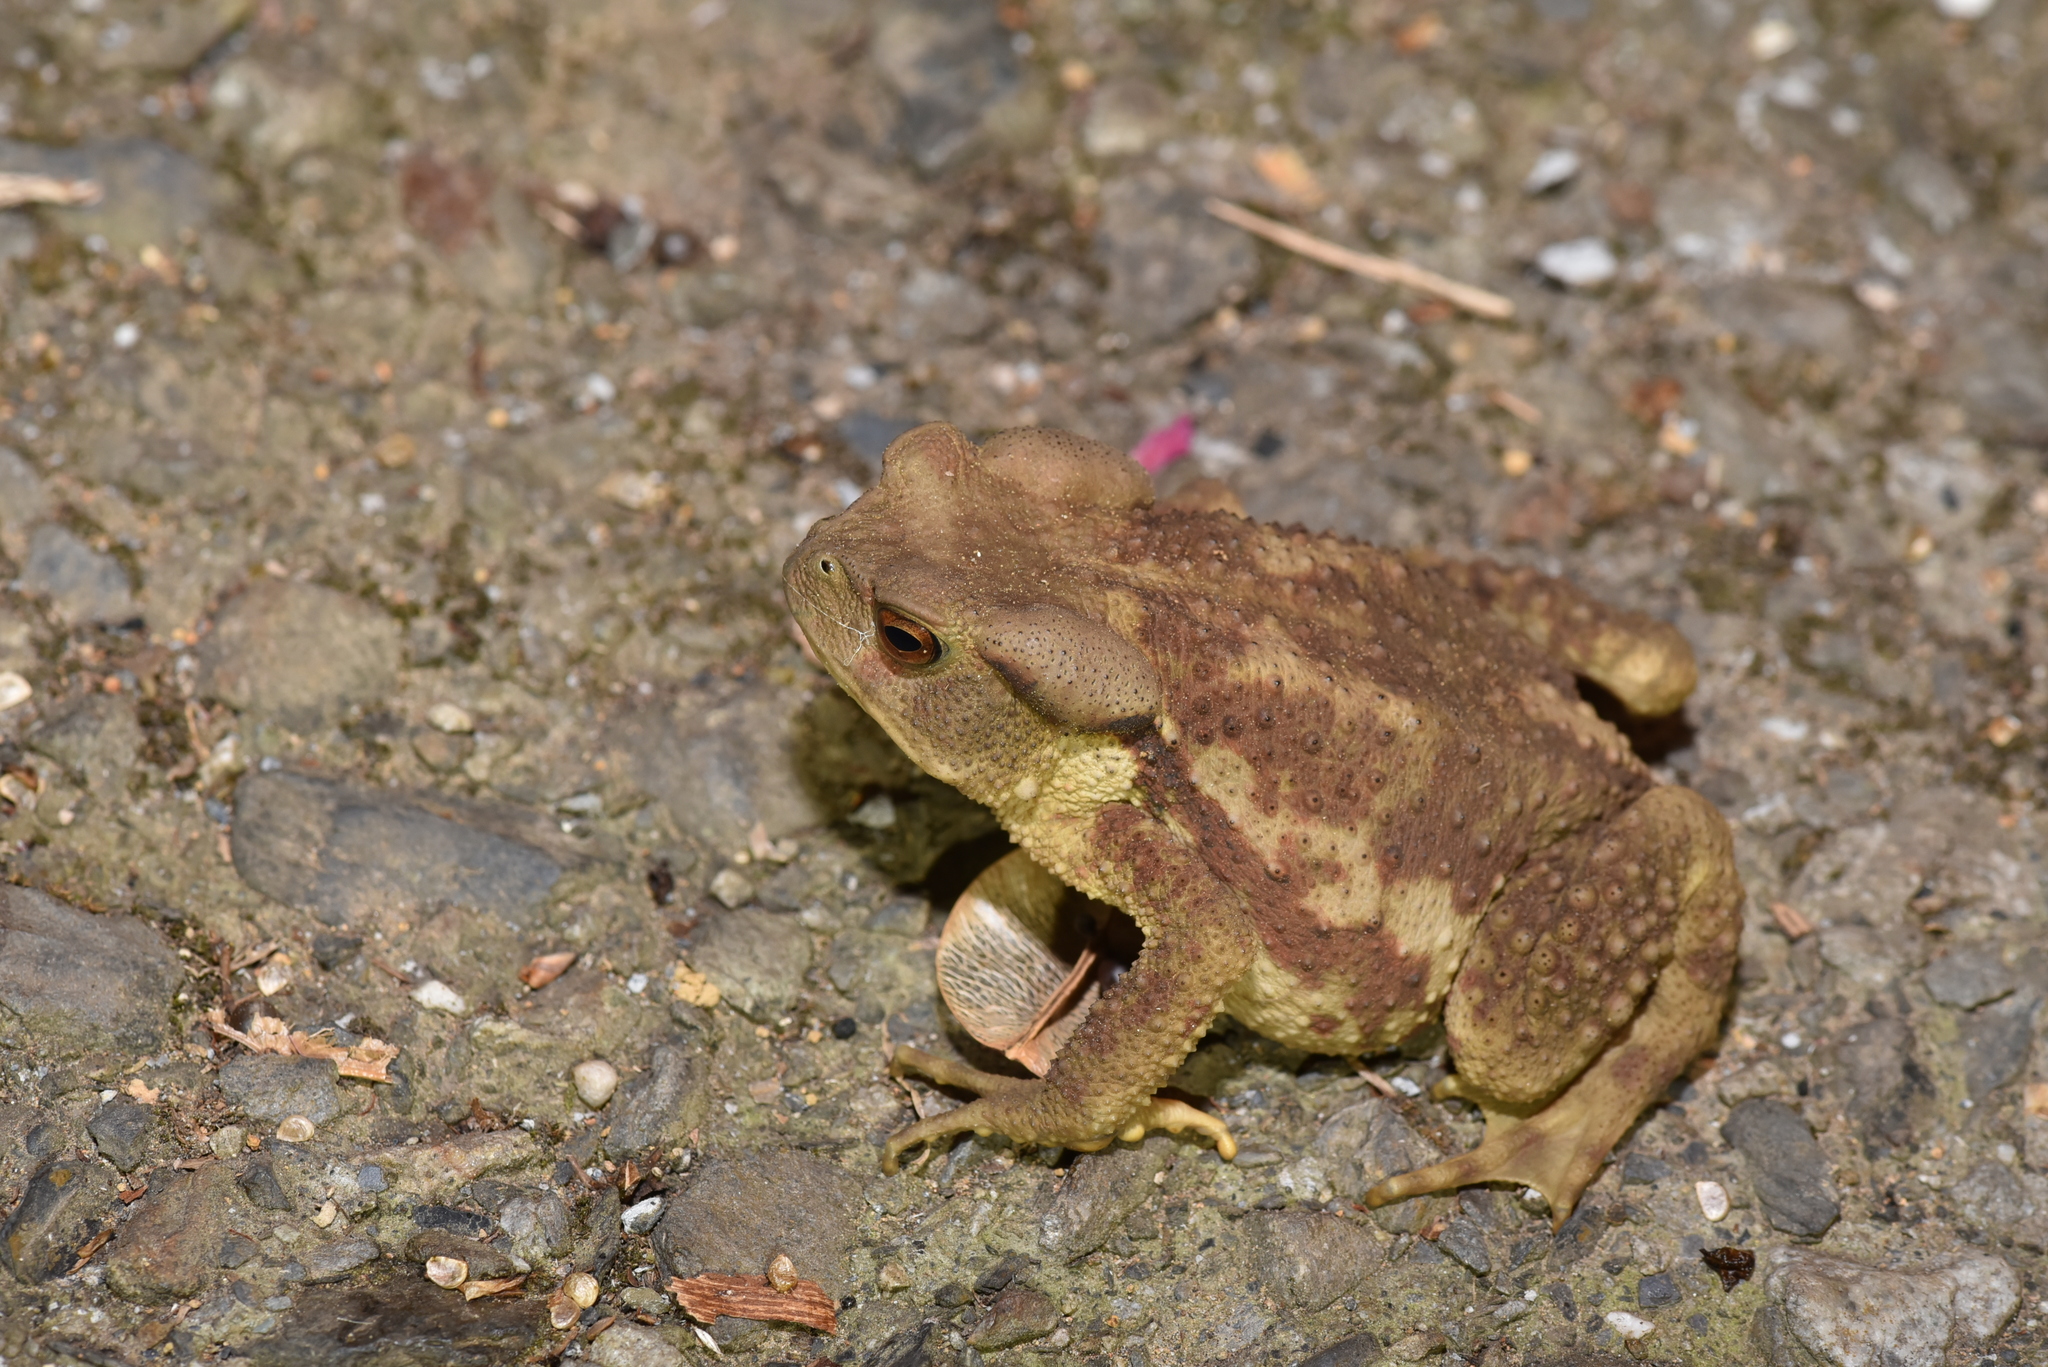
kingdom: Animalia
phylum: Chordata
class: Amphibia
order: Anura
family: Bufonidae
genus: Bufo
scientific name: Bufo bankorensis
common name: Bankor toad
